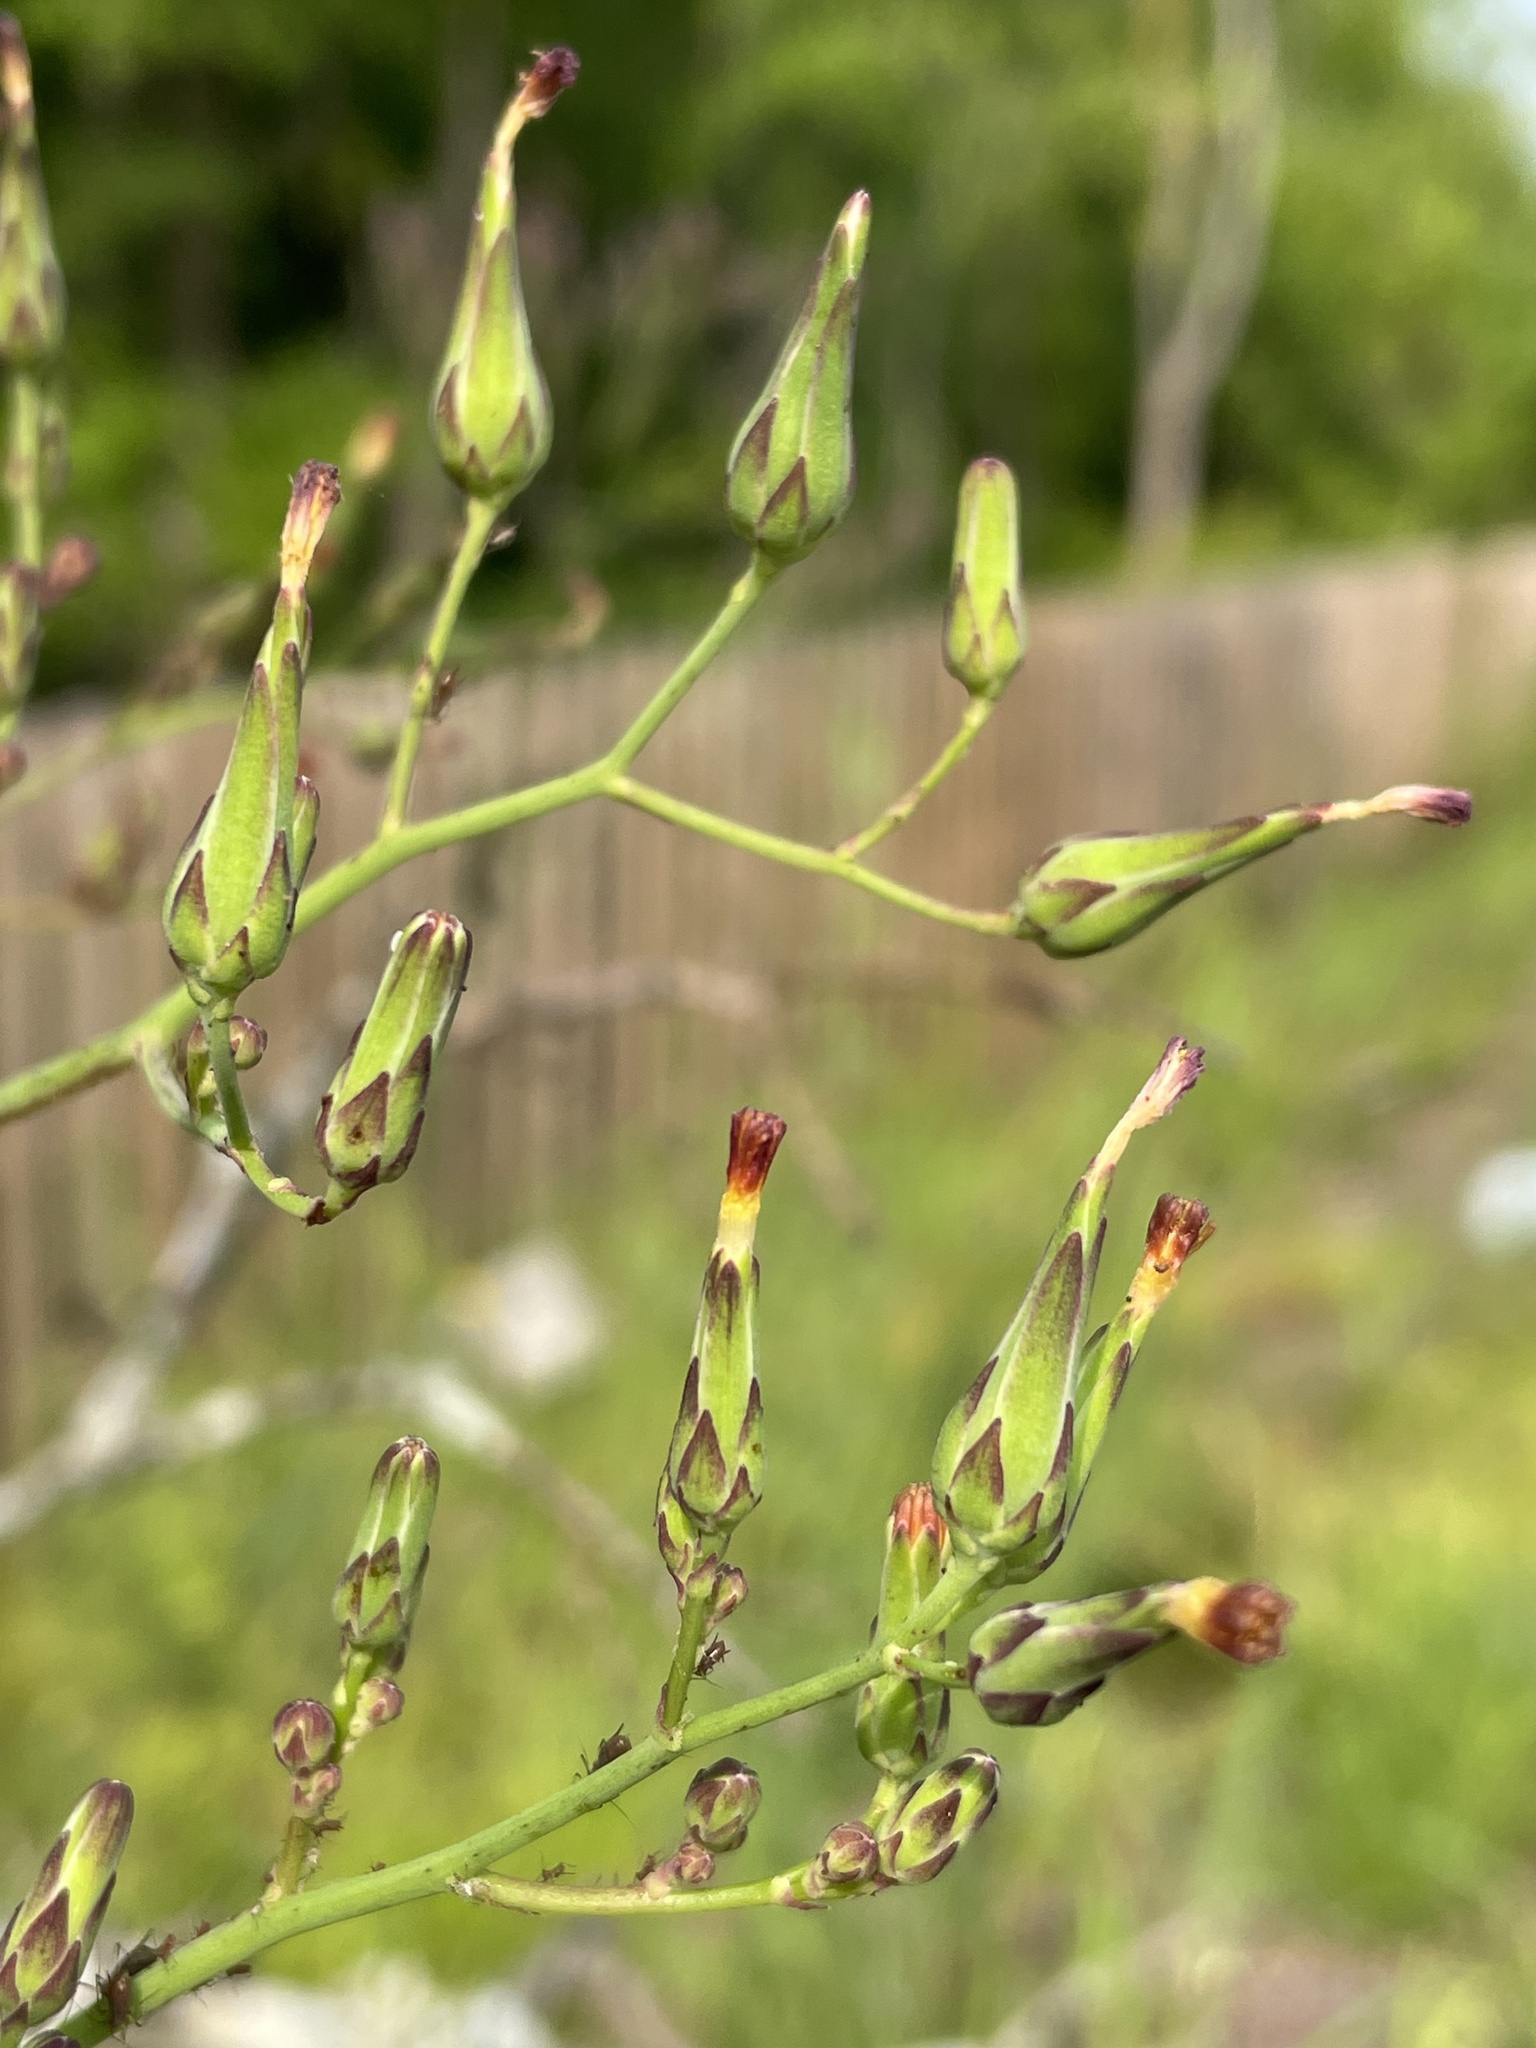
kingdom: Plantae
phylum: Tracheophyta
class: Magnoliopsida
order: Asterales
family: Asteraceae
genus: Lactuca
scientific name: Lactuca canadensis
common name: Canada lettuce
